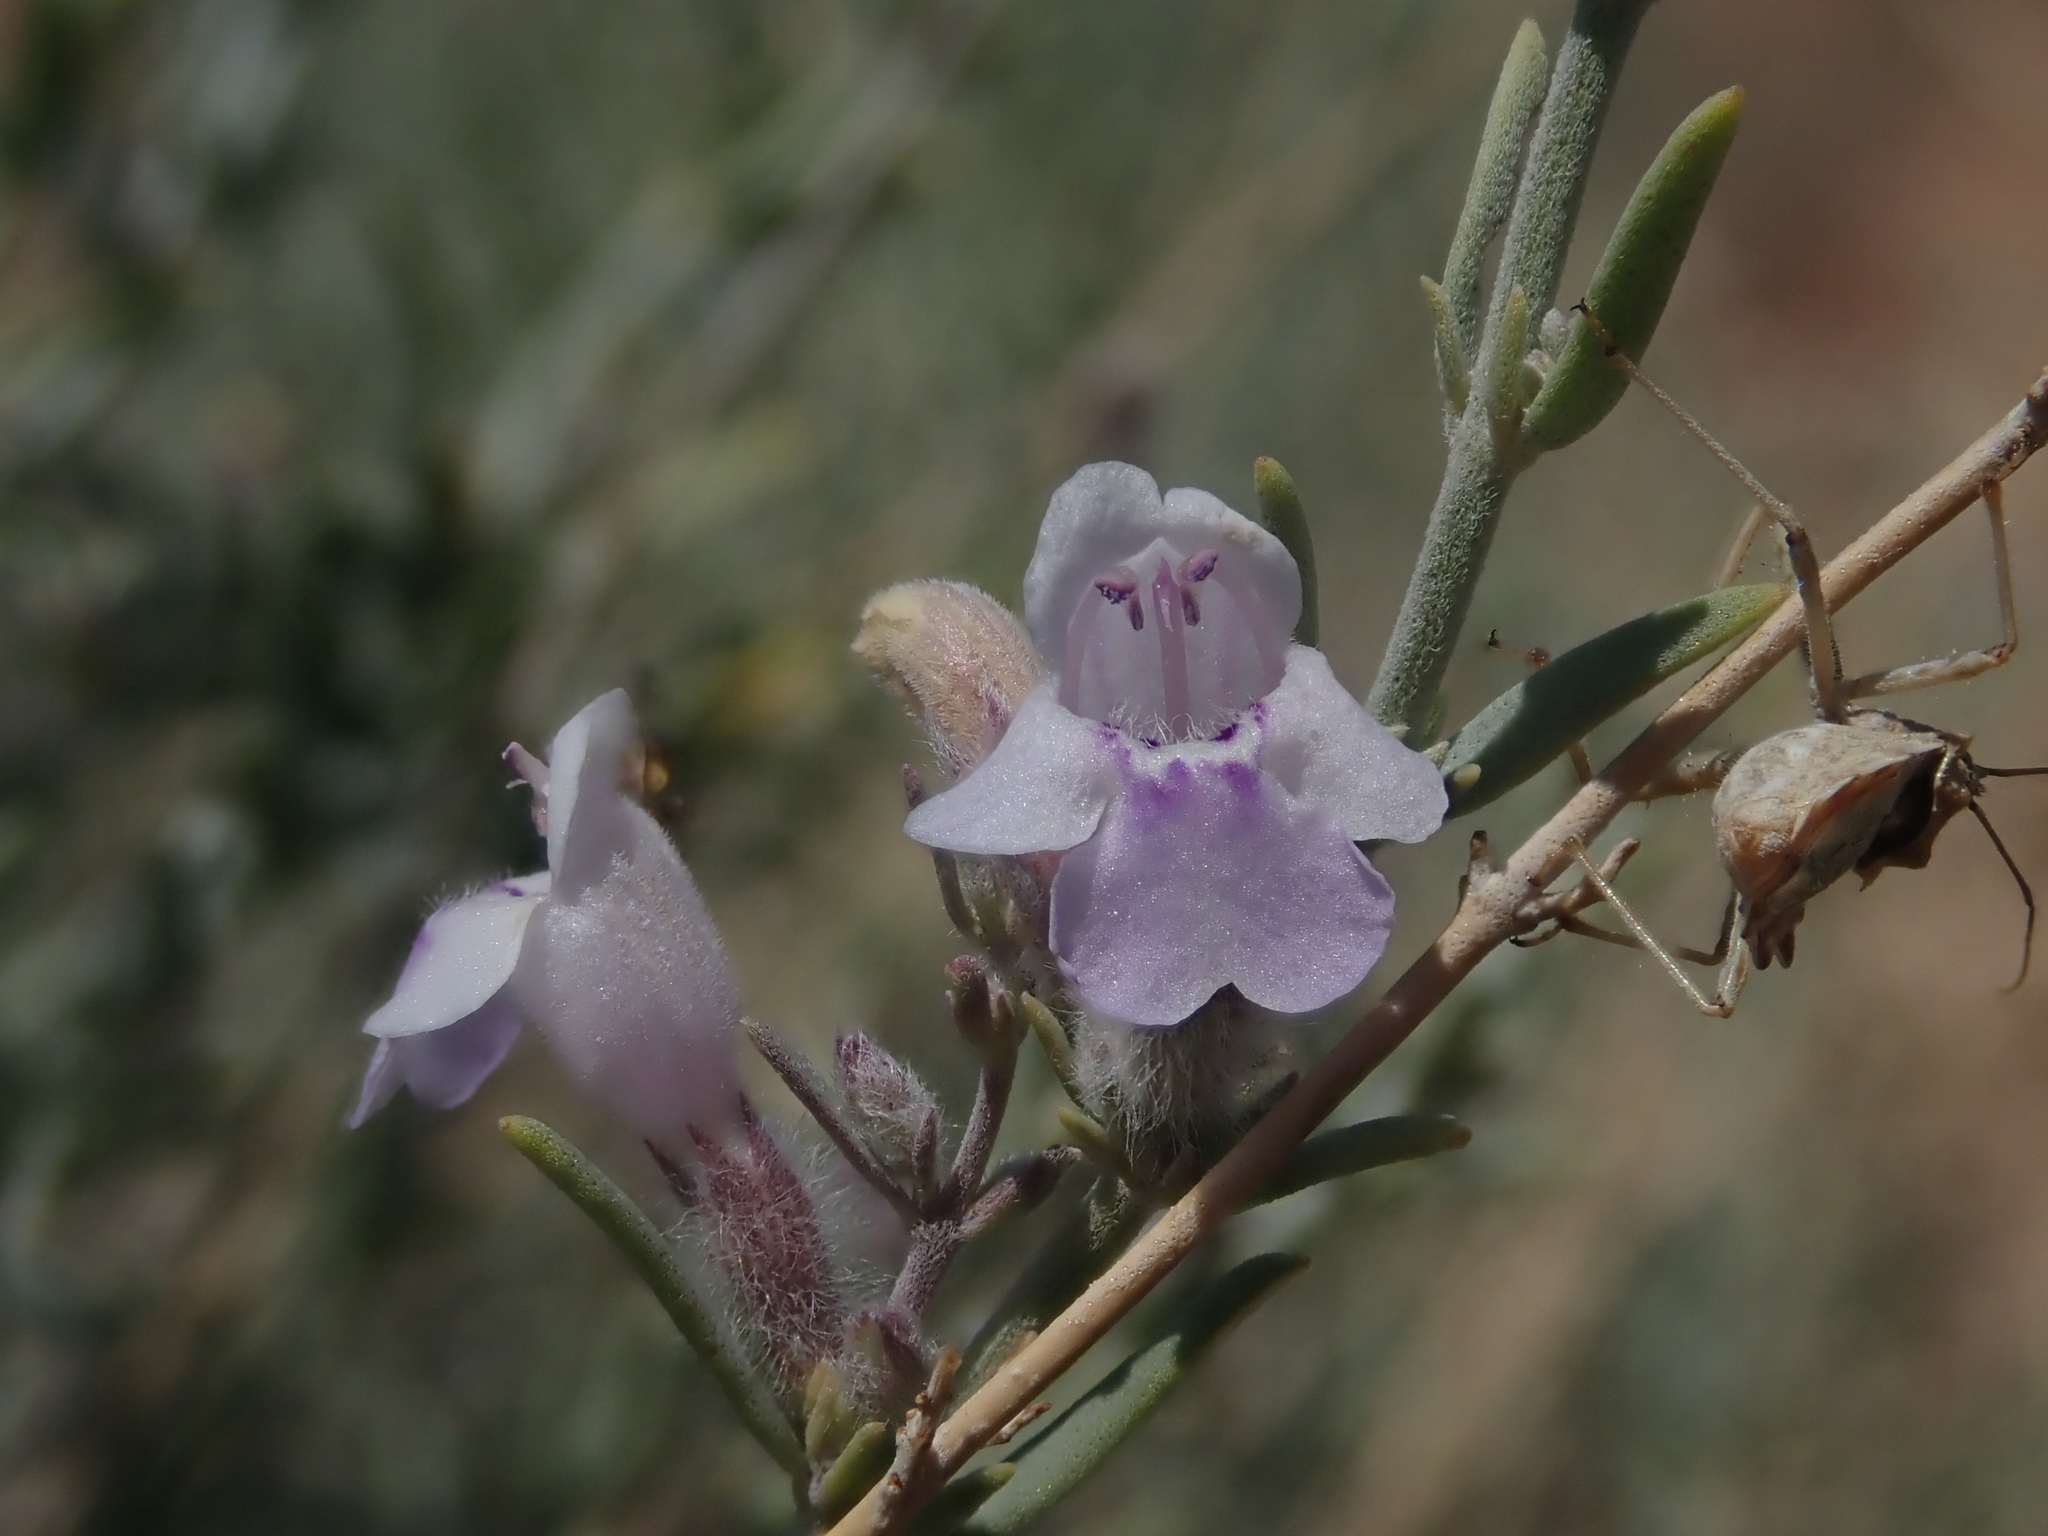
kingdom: Plantae
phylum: Tracheophyta
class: Magnoliopsida
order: Lamiales
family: Lamiaceae
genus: Poliomintha
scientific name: Poliomintha incana
